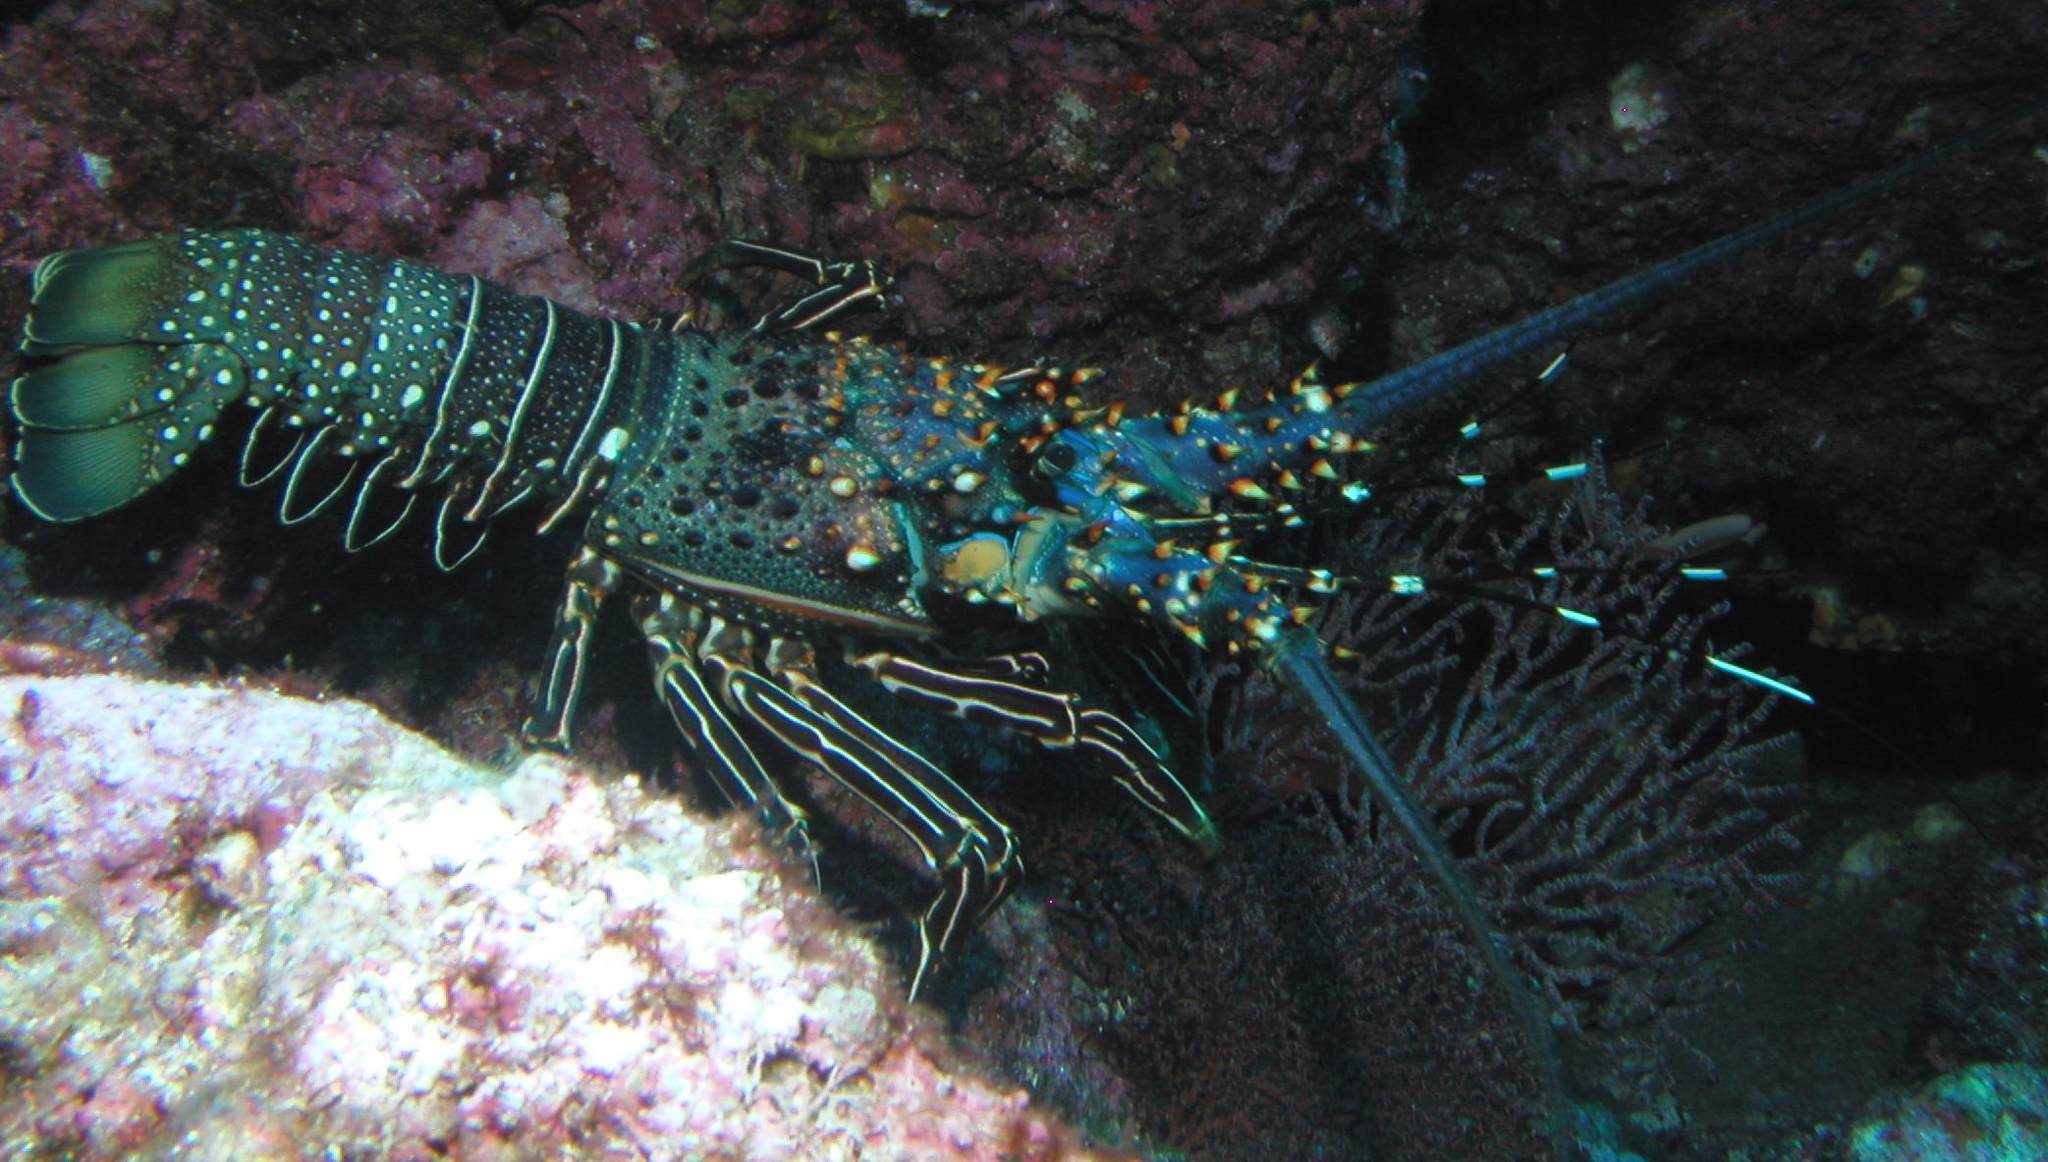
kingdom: Animalia
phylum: Arthropoda
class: Malacostraca
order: Decapoda
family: Palinuridae
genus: Panulirus
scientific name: Panulirus inflatus
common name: Blue spiny lobster
